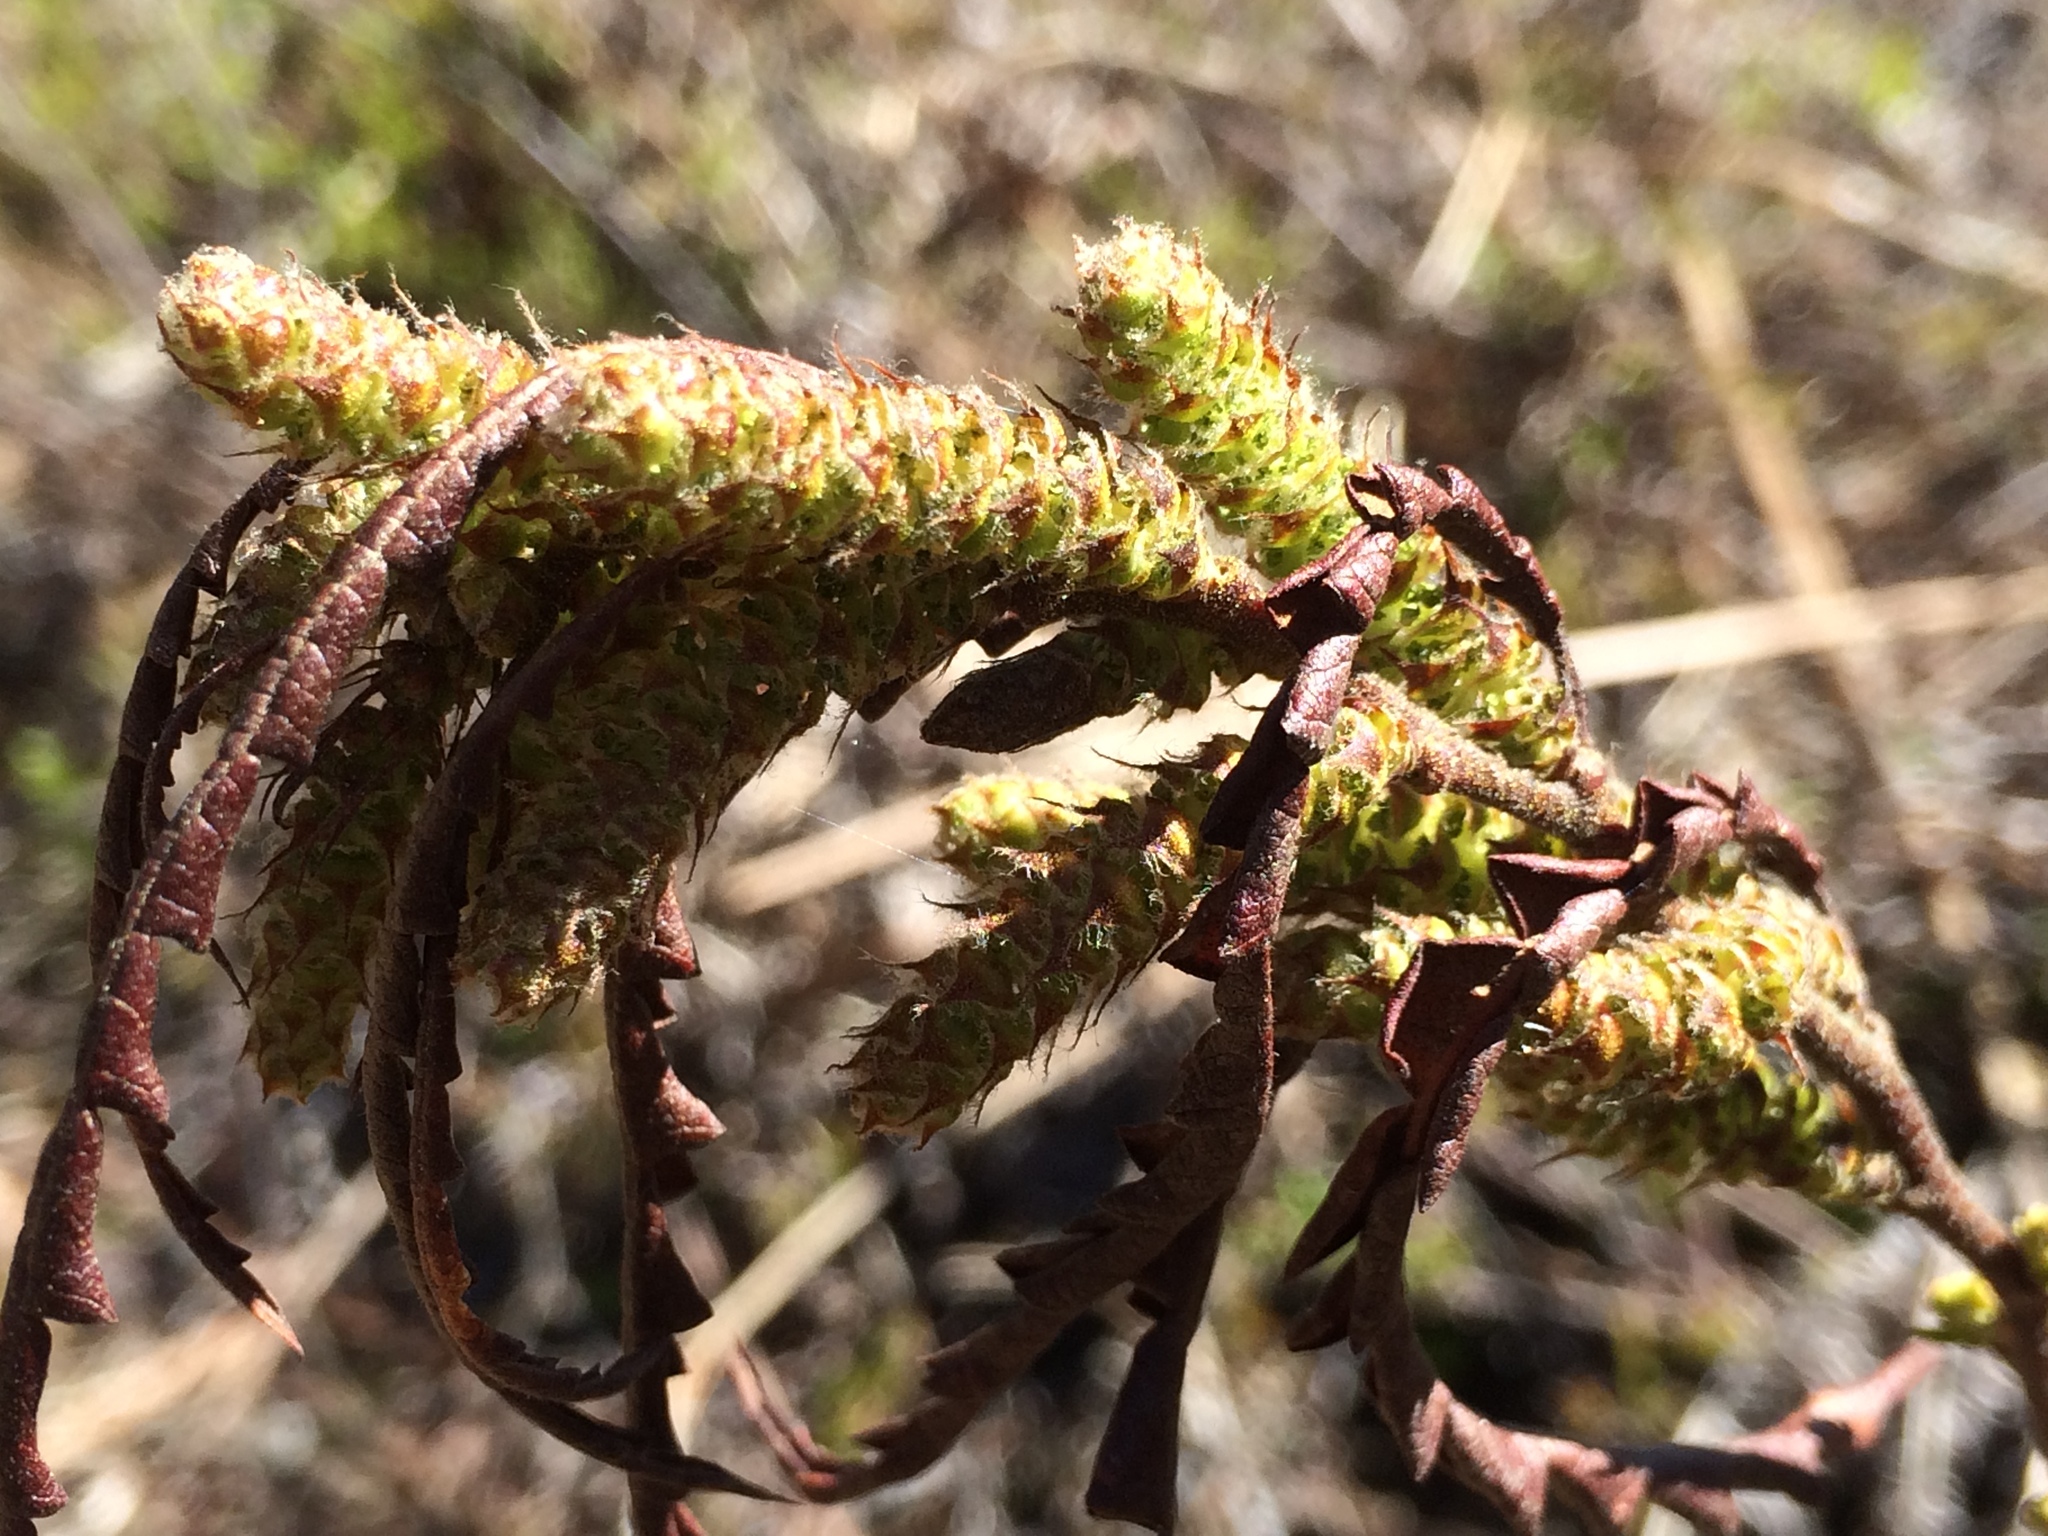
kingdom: Plantae
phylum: Tracheophyta
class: Magnoliopsida
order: Fagales
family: Myricaceae
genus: Comptonia
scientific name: Comptonia peregrina
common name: Sweet-fern
